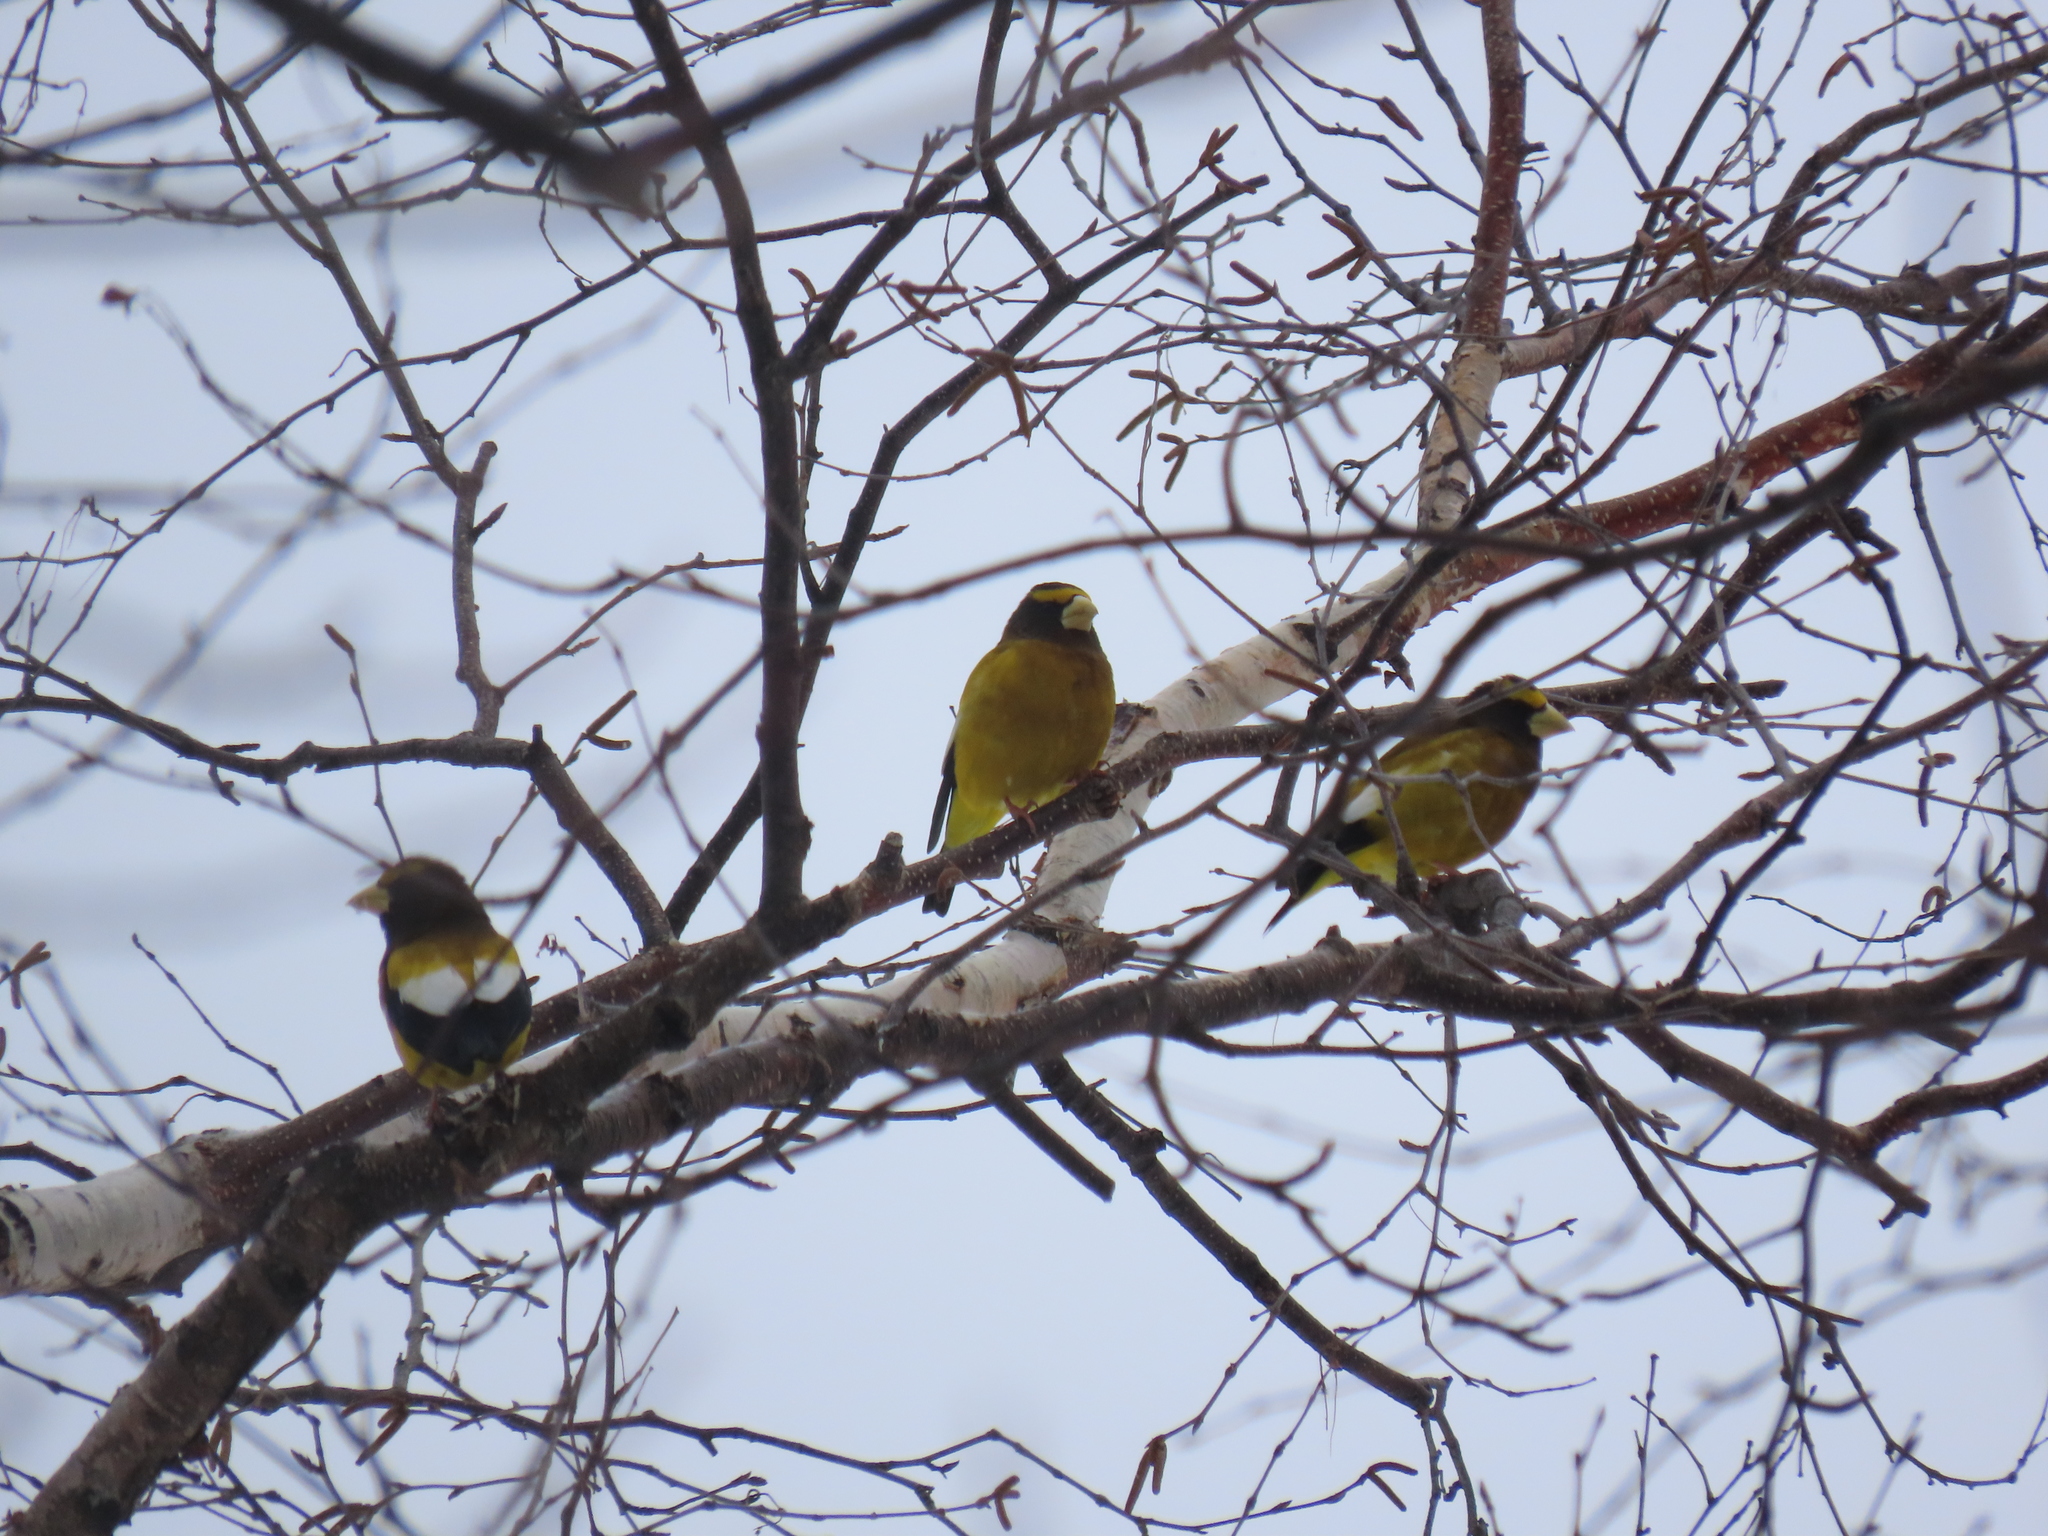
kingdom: Animalia
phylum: Chordata
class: Aves
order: Passeriformes
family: Fringillidae
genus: Hesperiphona
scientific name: Hesperiphona vespertina
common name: Evening grosbeak
